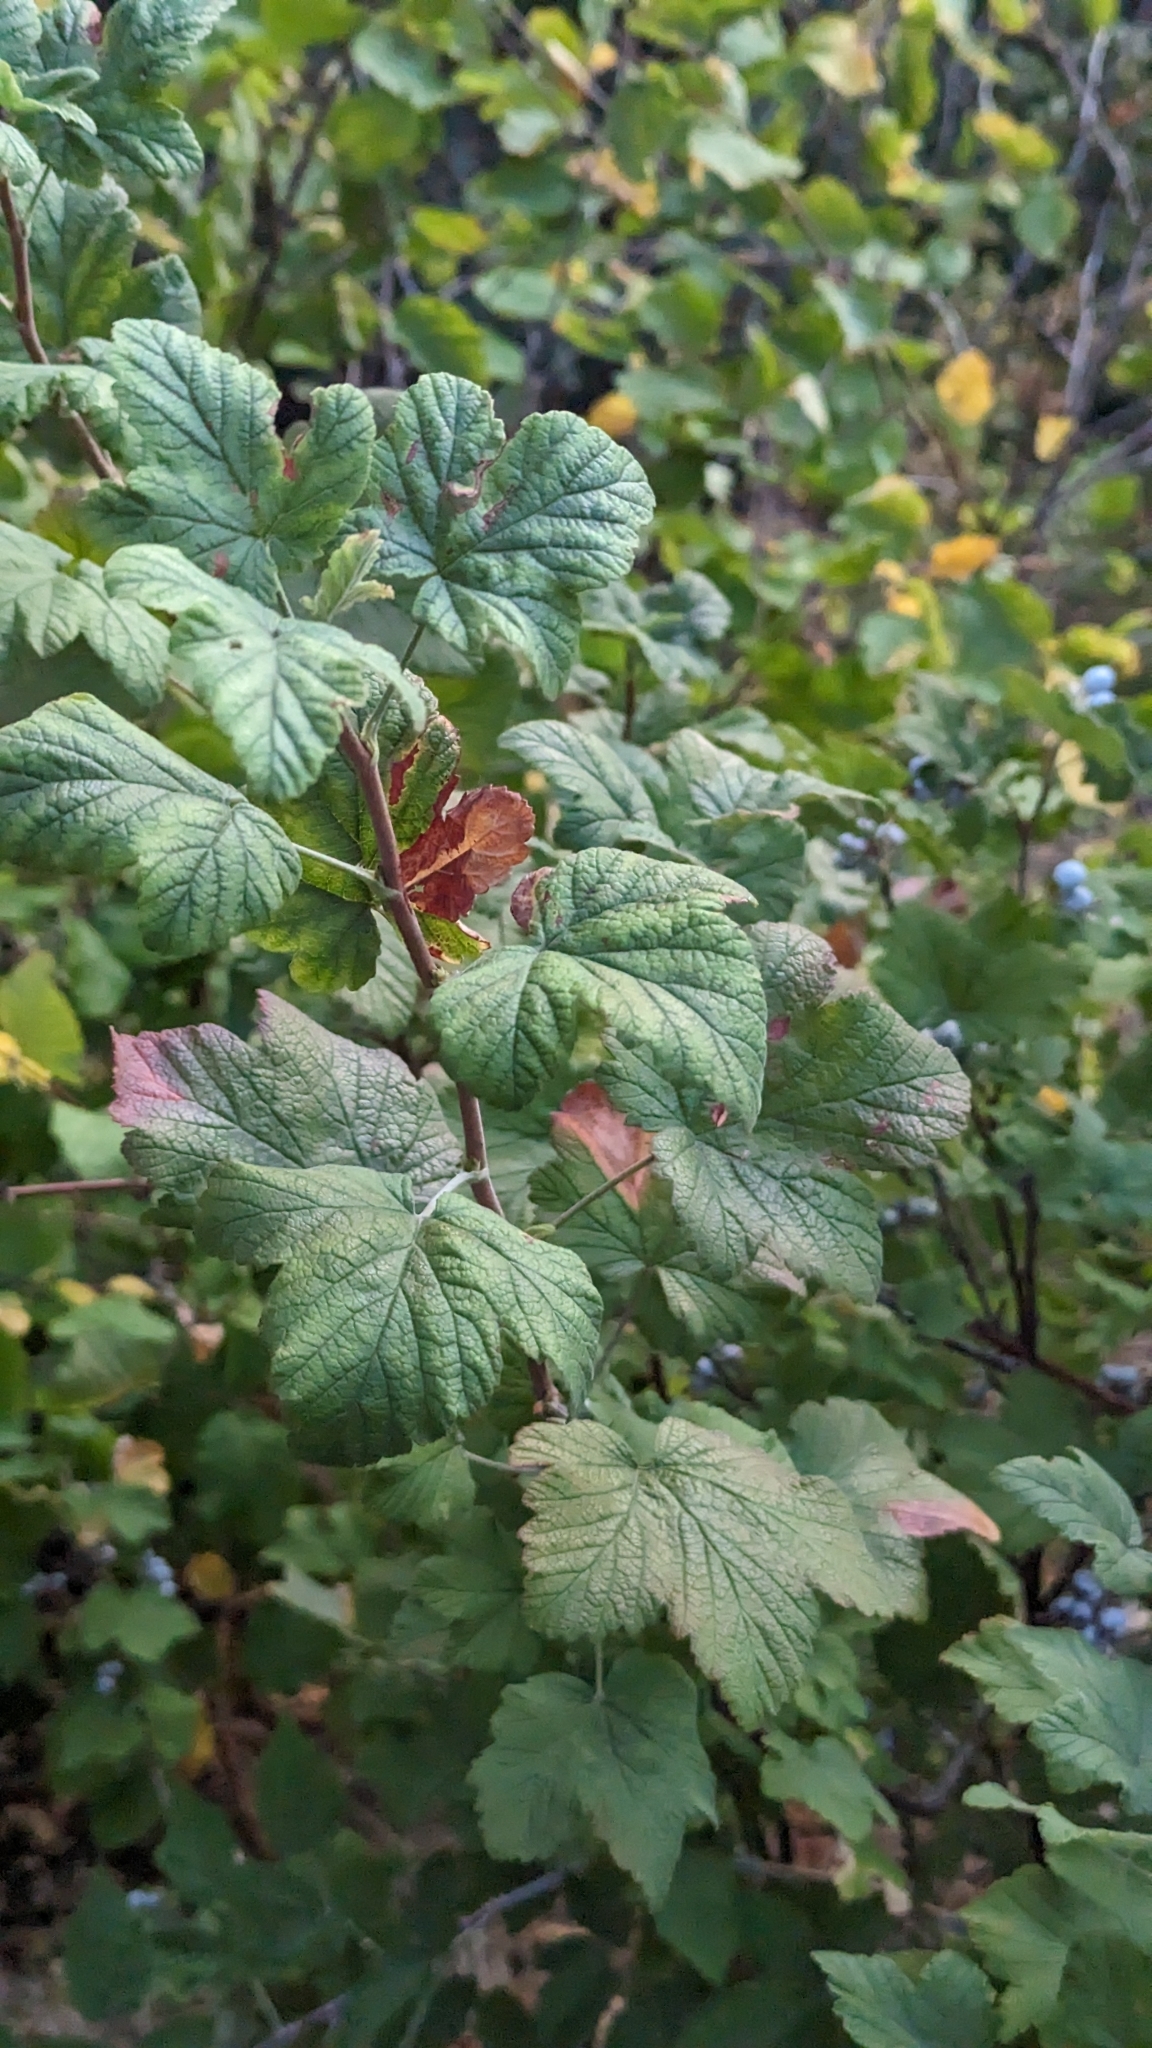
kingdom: Plantae
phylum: Tracheophyta
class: Magnoliopsida
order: Saxifragales
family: Grossulariaceae
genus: Ribes
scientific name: Ribes sanguineum
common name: Flowering currant
